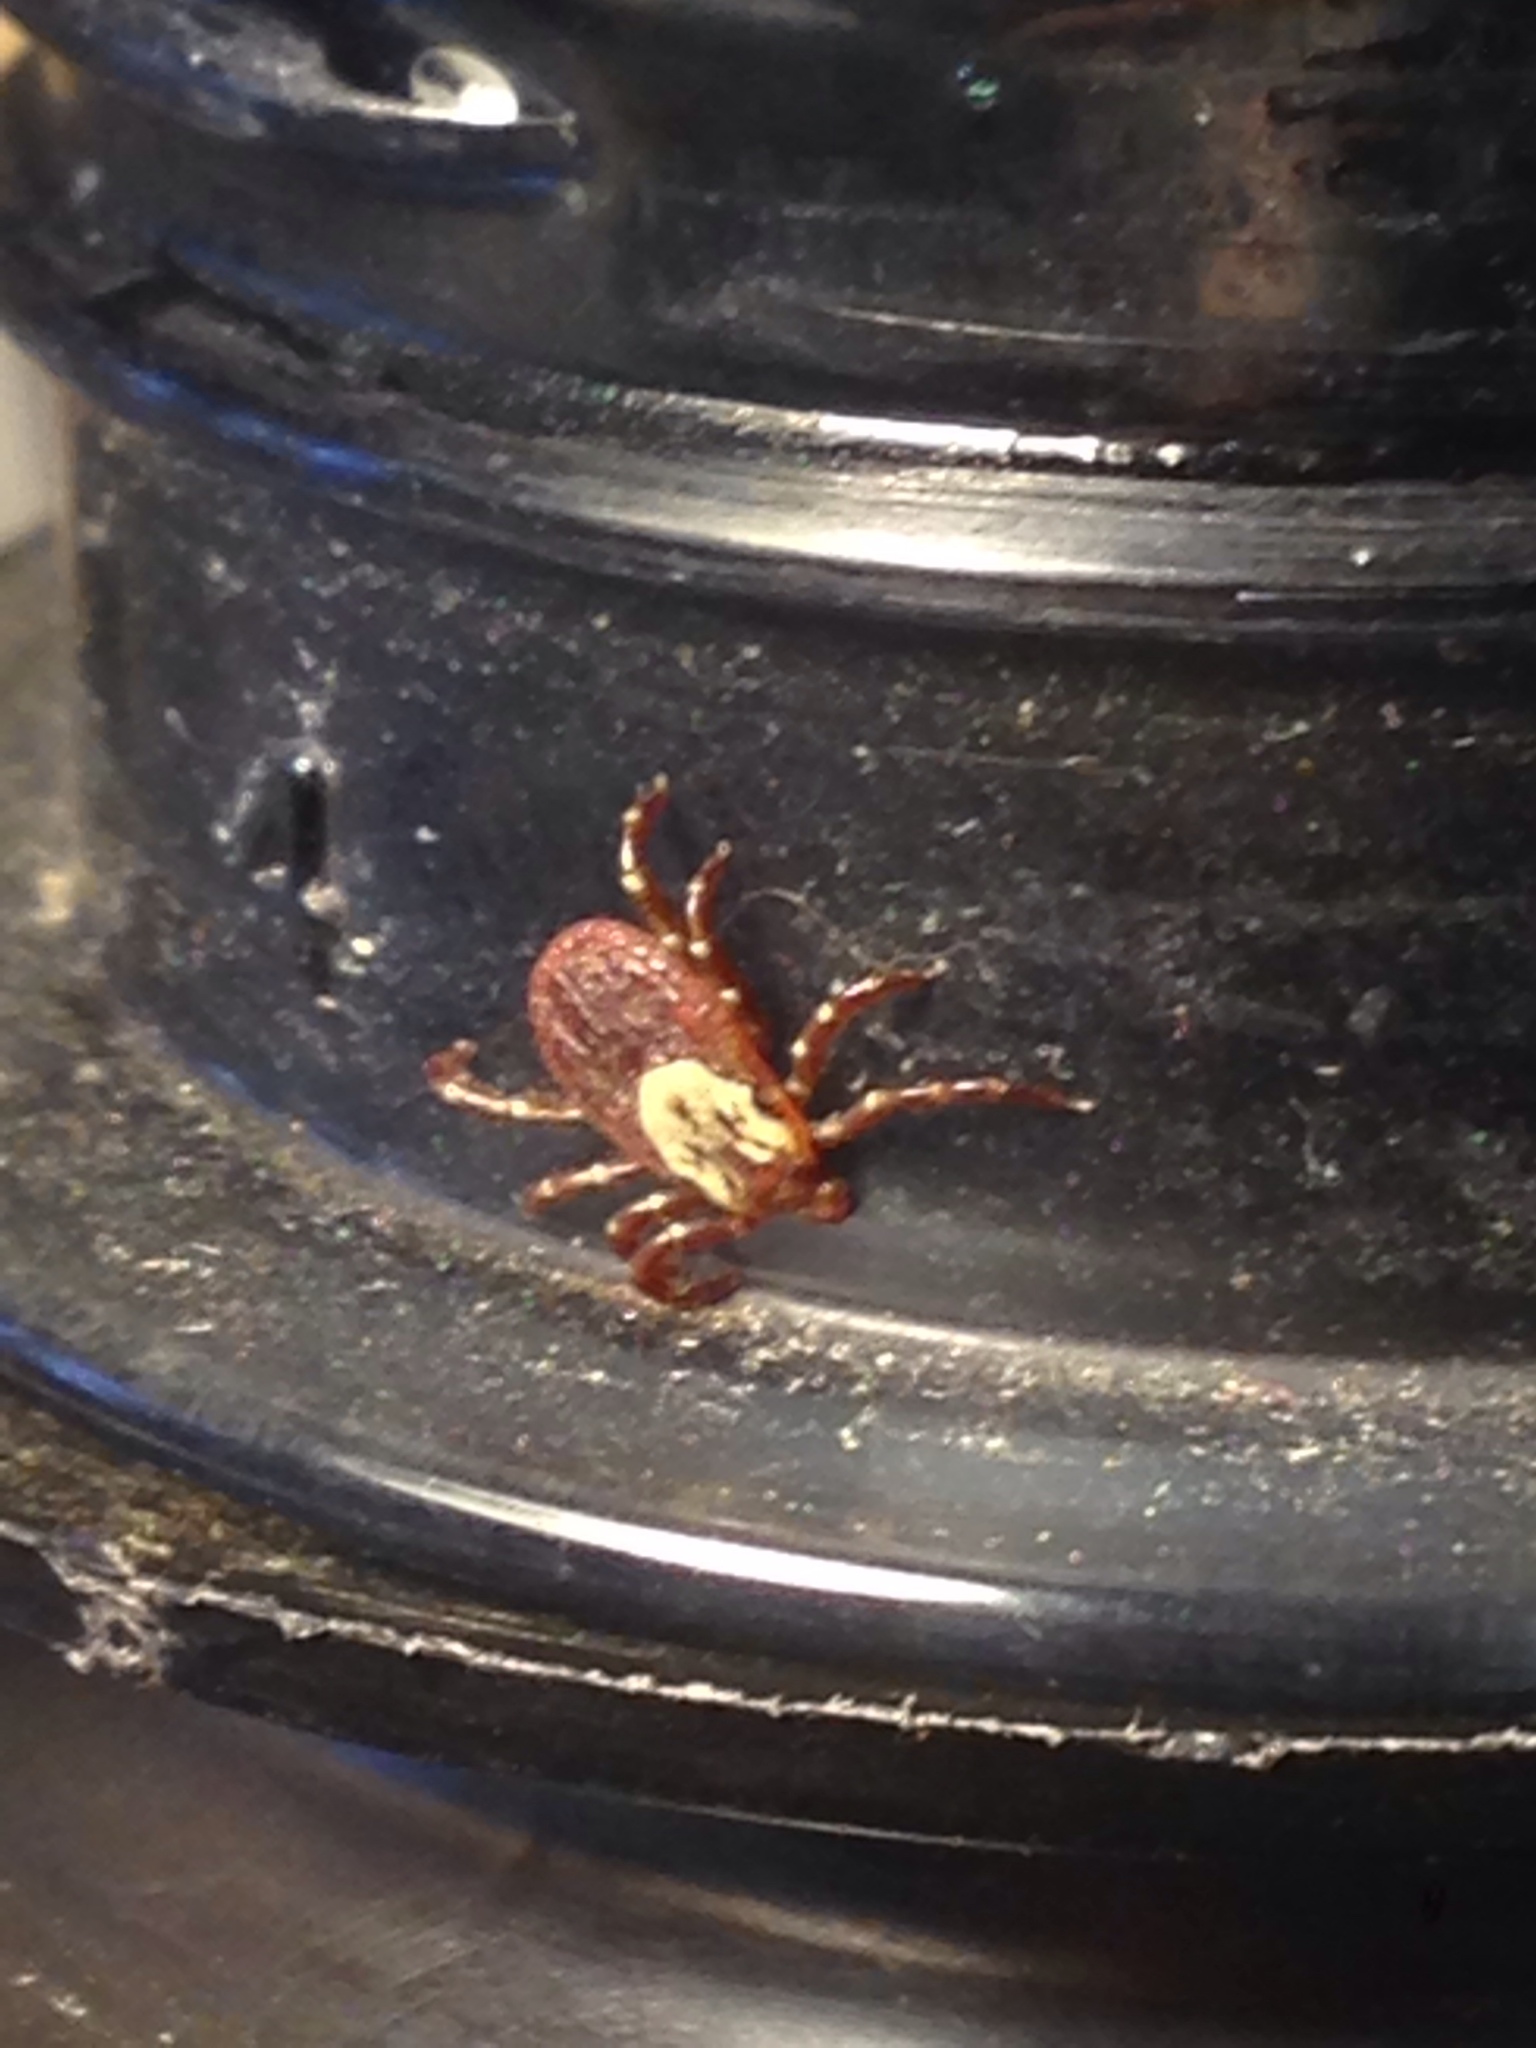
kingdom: Animalia
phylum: Arthropoda
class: Arachnida
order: Ixodida
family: Ixodidae
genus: Dermacentor
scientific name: Dermacentor variabilis
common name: American dog tick
